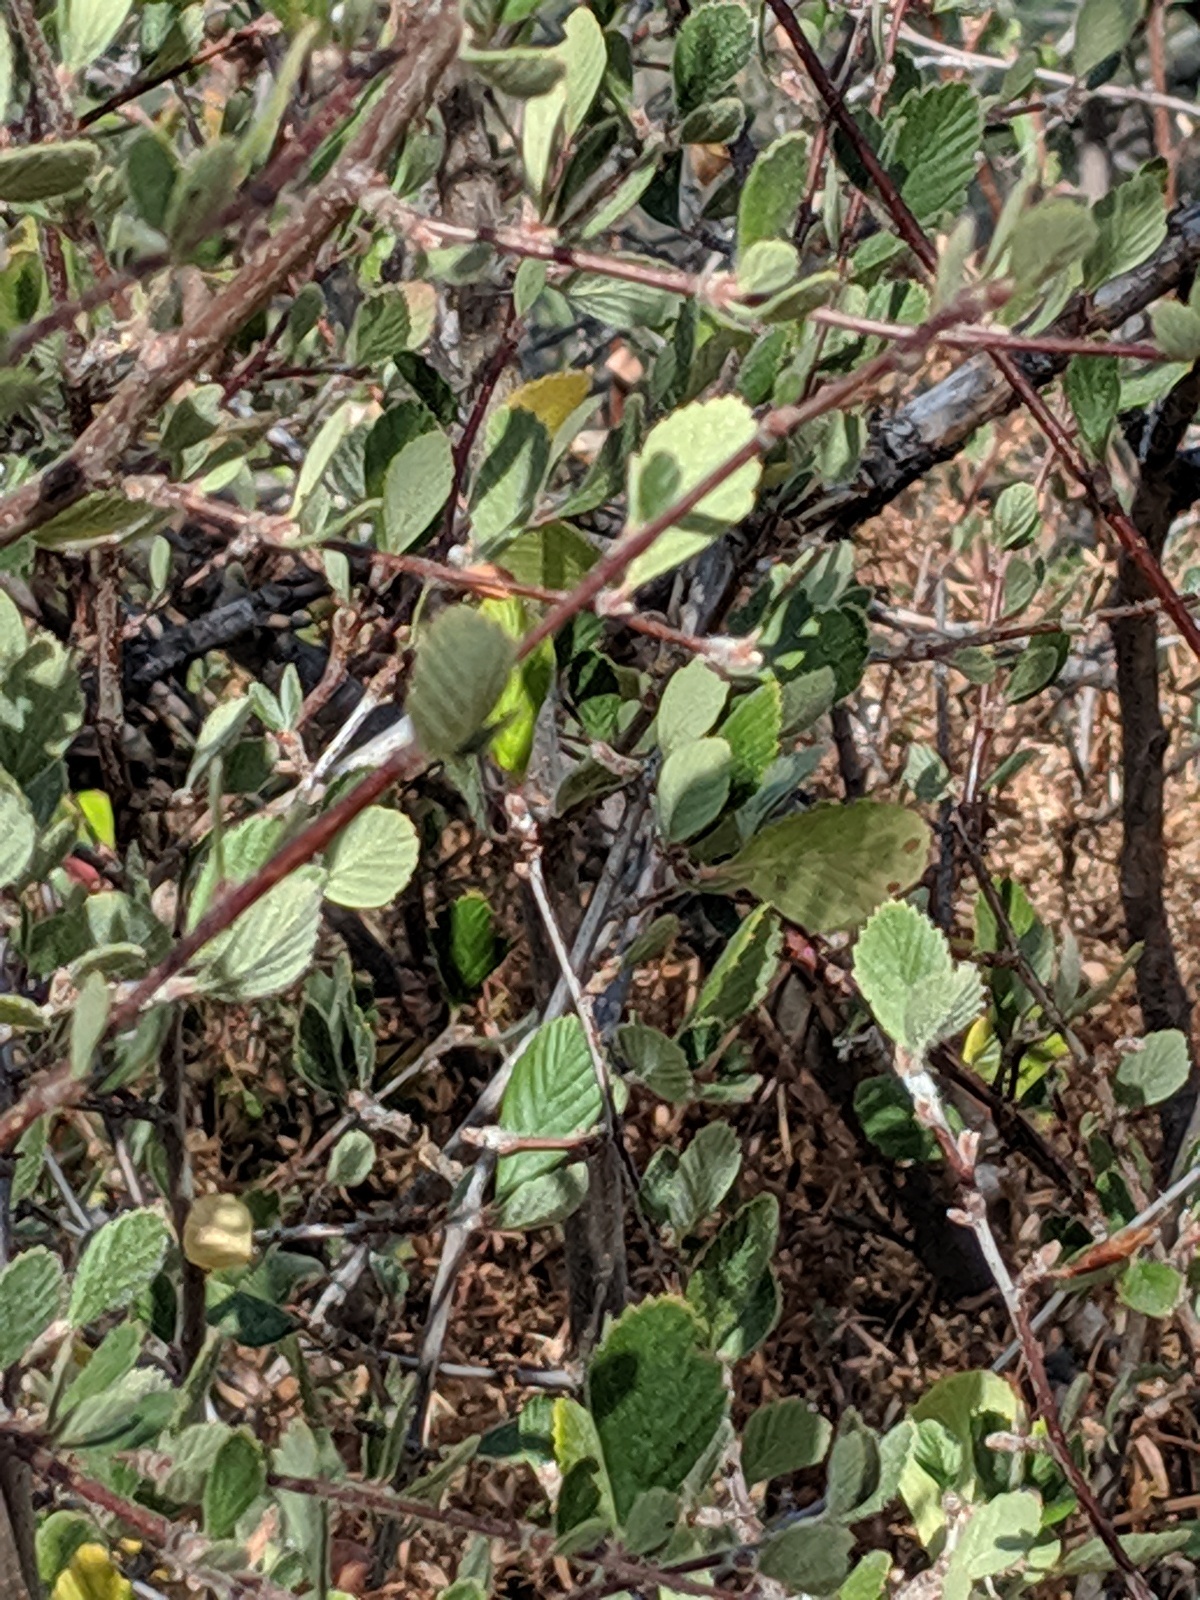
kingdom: Plantae
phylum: Tracheophyta
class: Magnoliopsida
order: Rosales
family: Rosaceae
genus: Cercocarpus
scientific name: Cercocarpus betuloides
